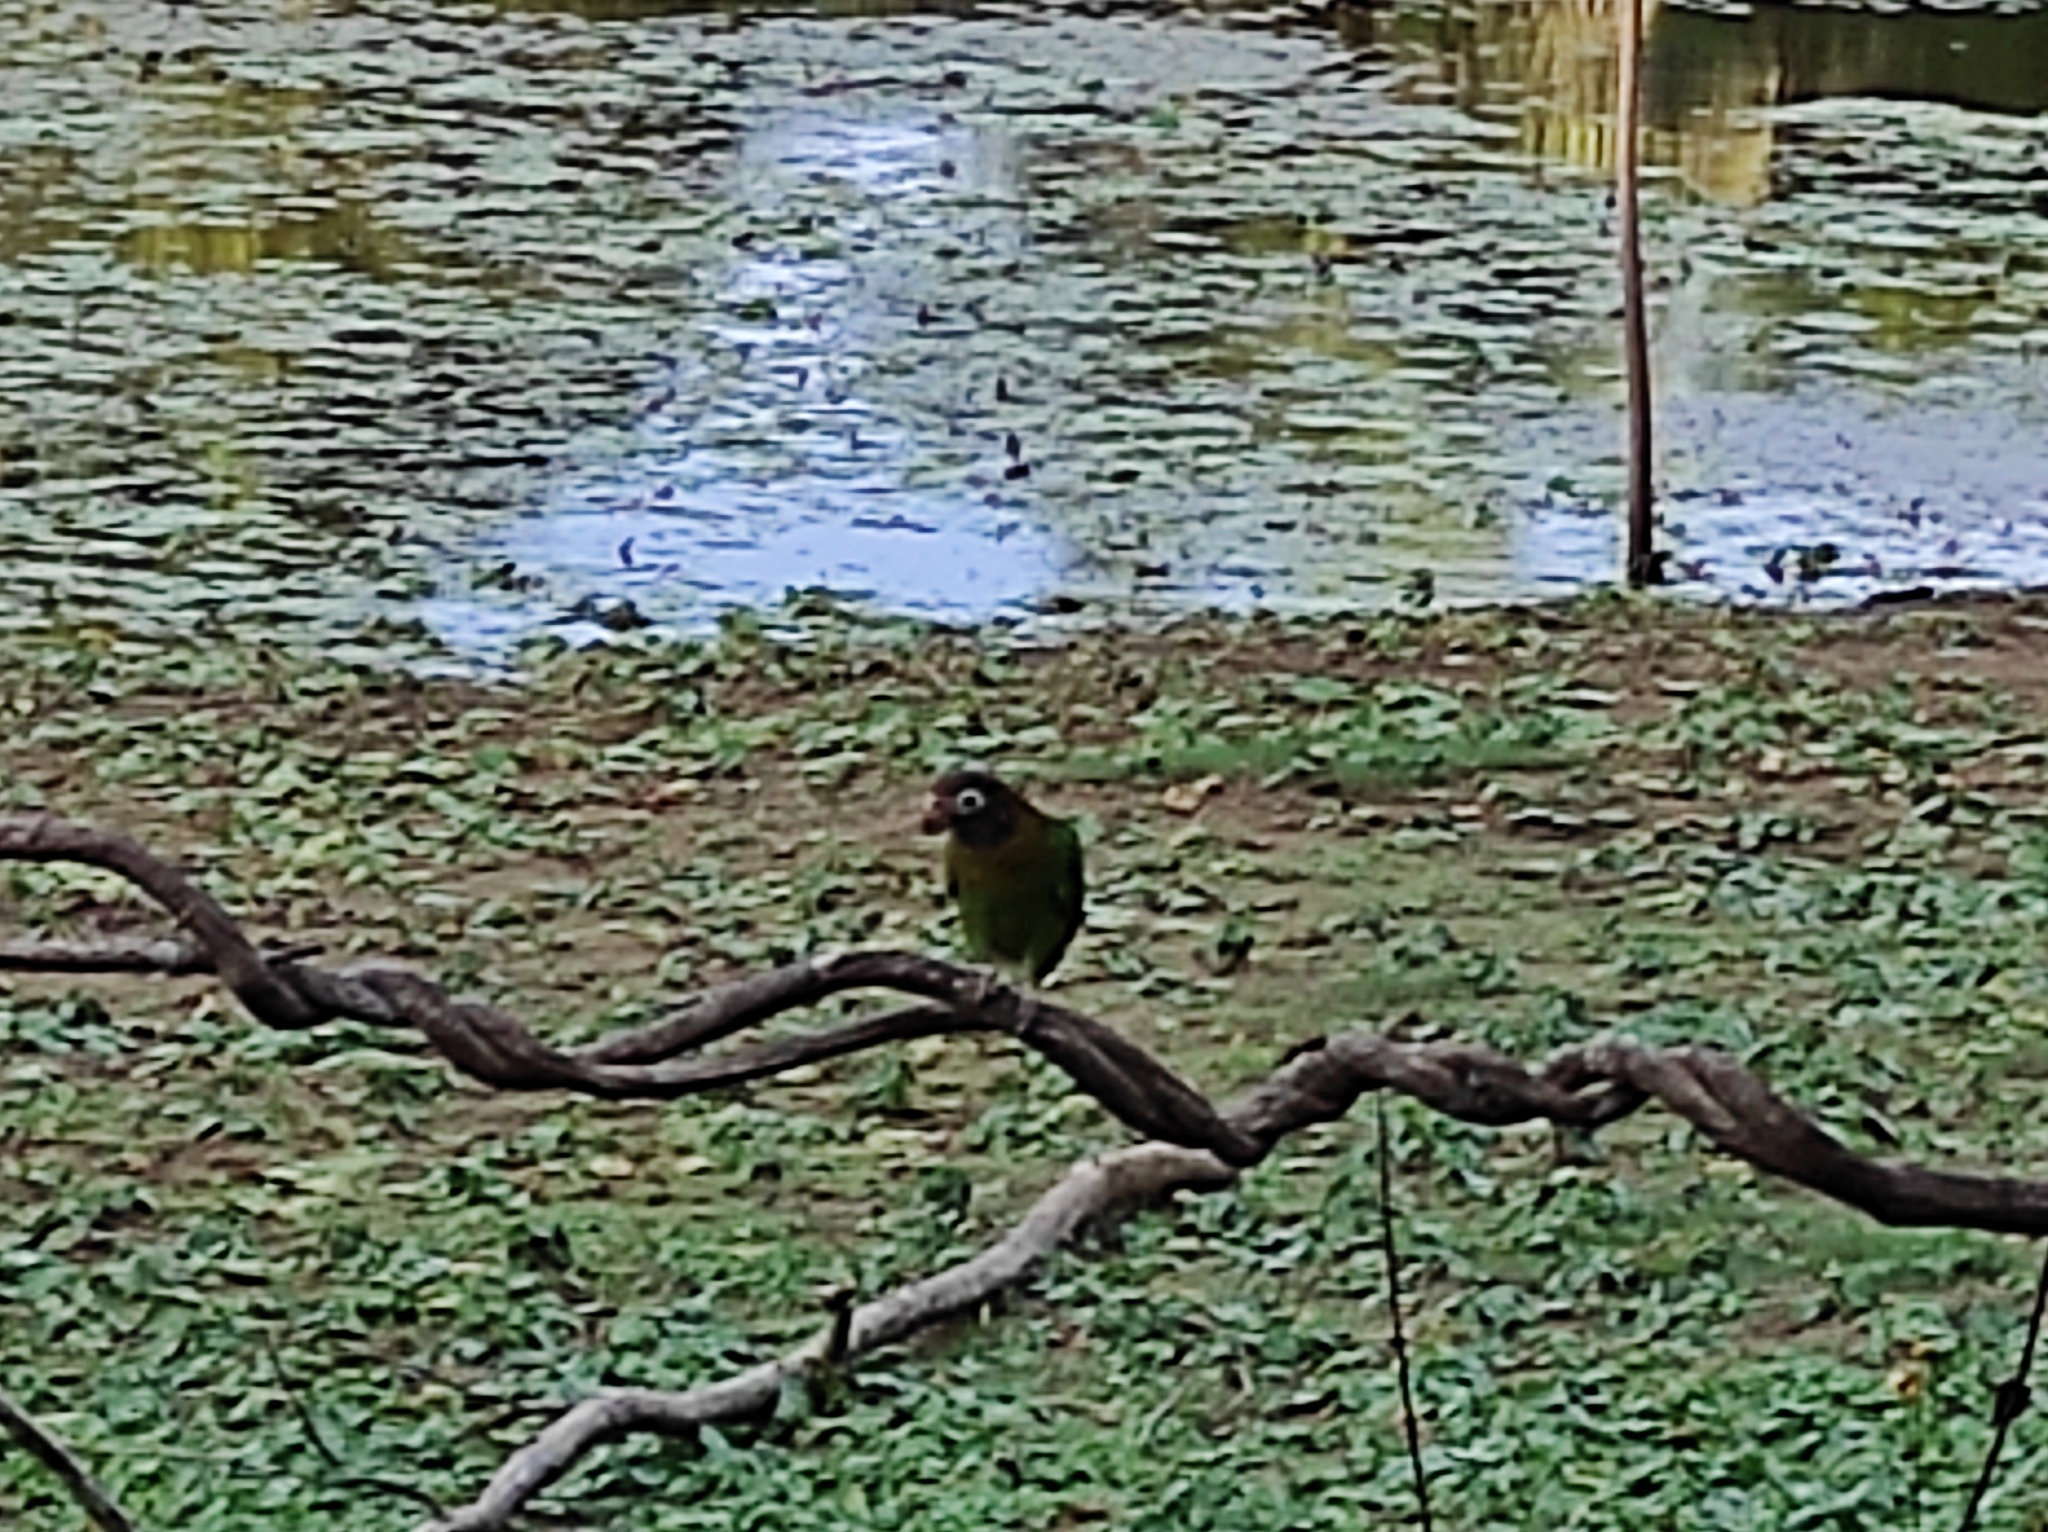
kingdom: Animalia
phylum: Chordata
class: Aves
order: Psittaciformes
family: Psittacidae
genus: Pionopsitta
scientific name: Pionopsitta haematotis
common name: Brown-hooded parrot
